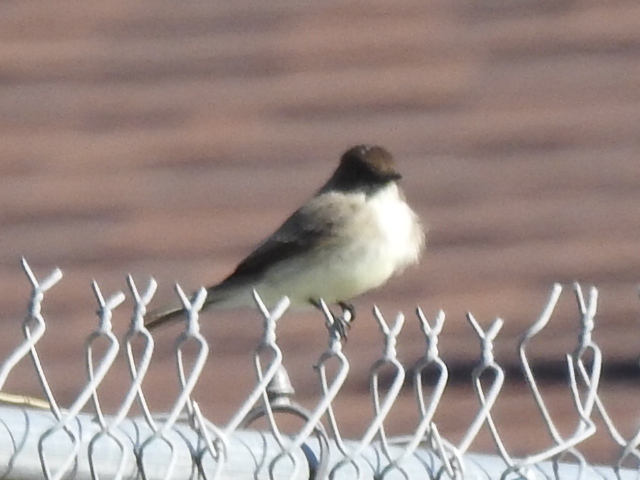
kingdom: Animalia
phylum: Chordata
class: Aves
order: Passeriformes
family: Tyrannidae
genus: Sayornis
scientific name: Sayornis phoebe
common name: Eastern phoebe
